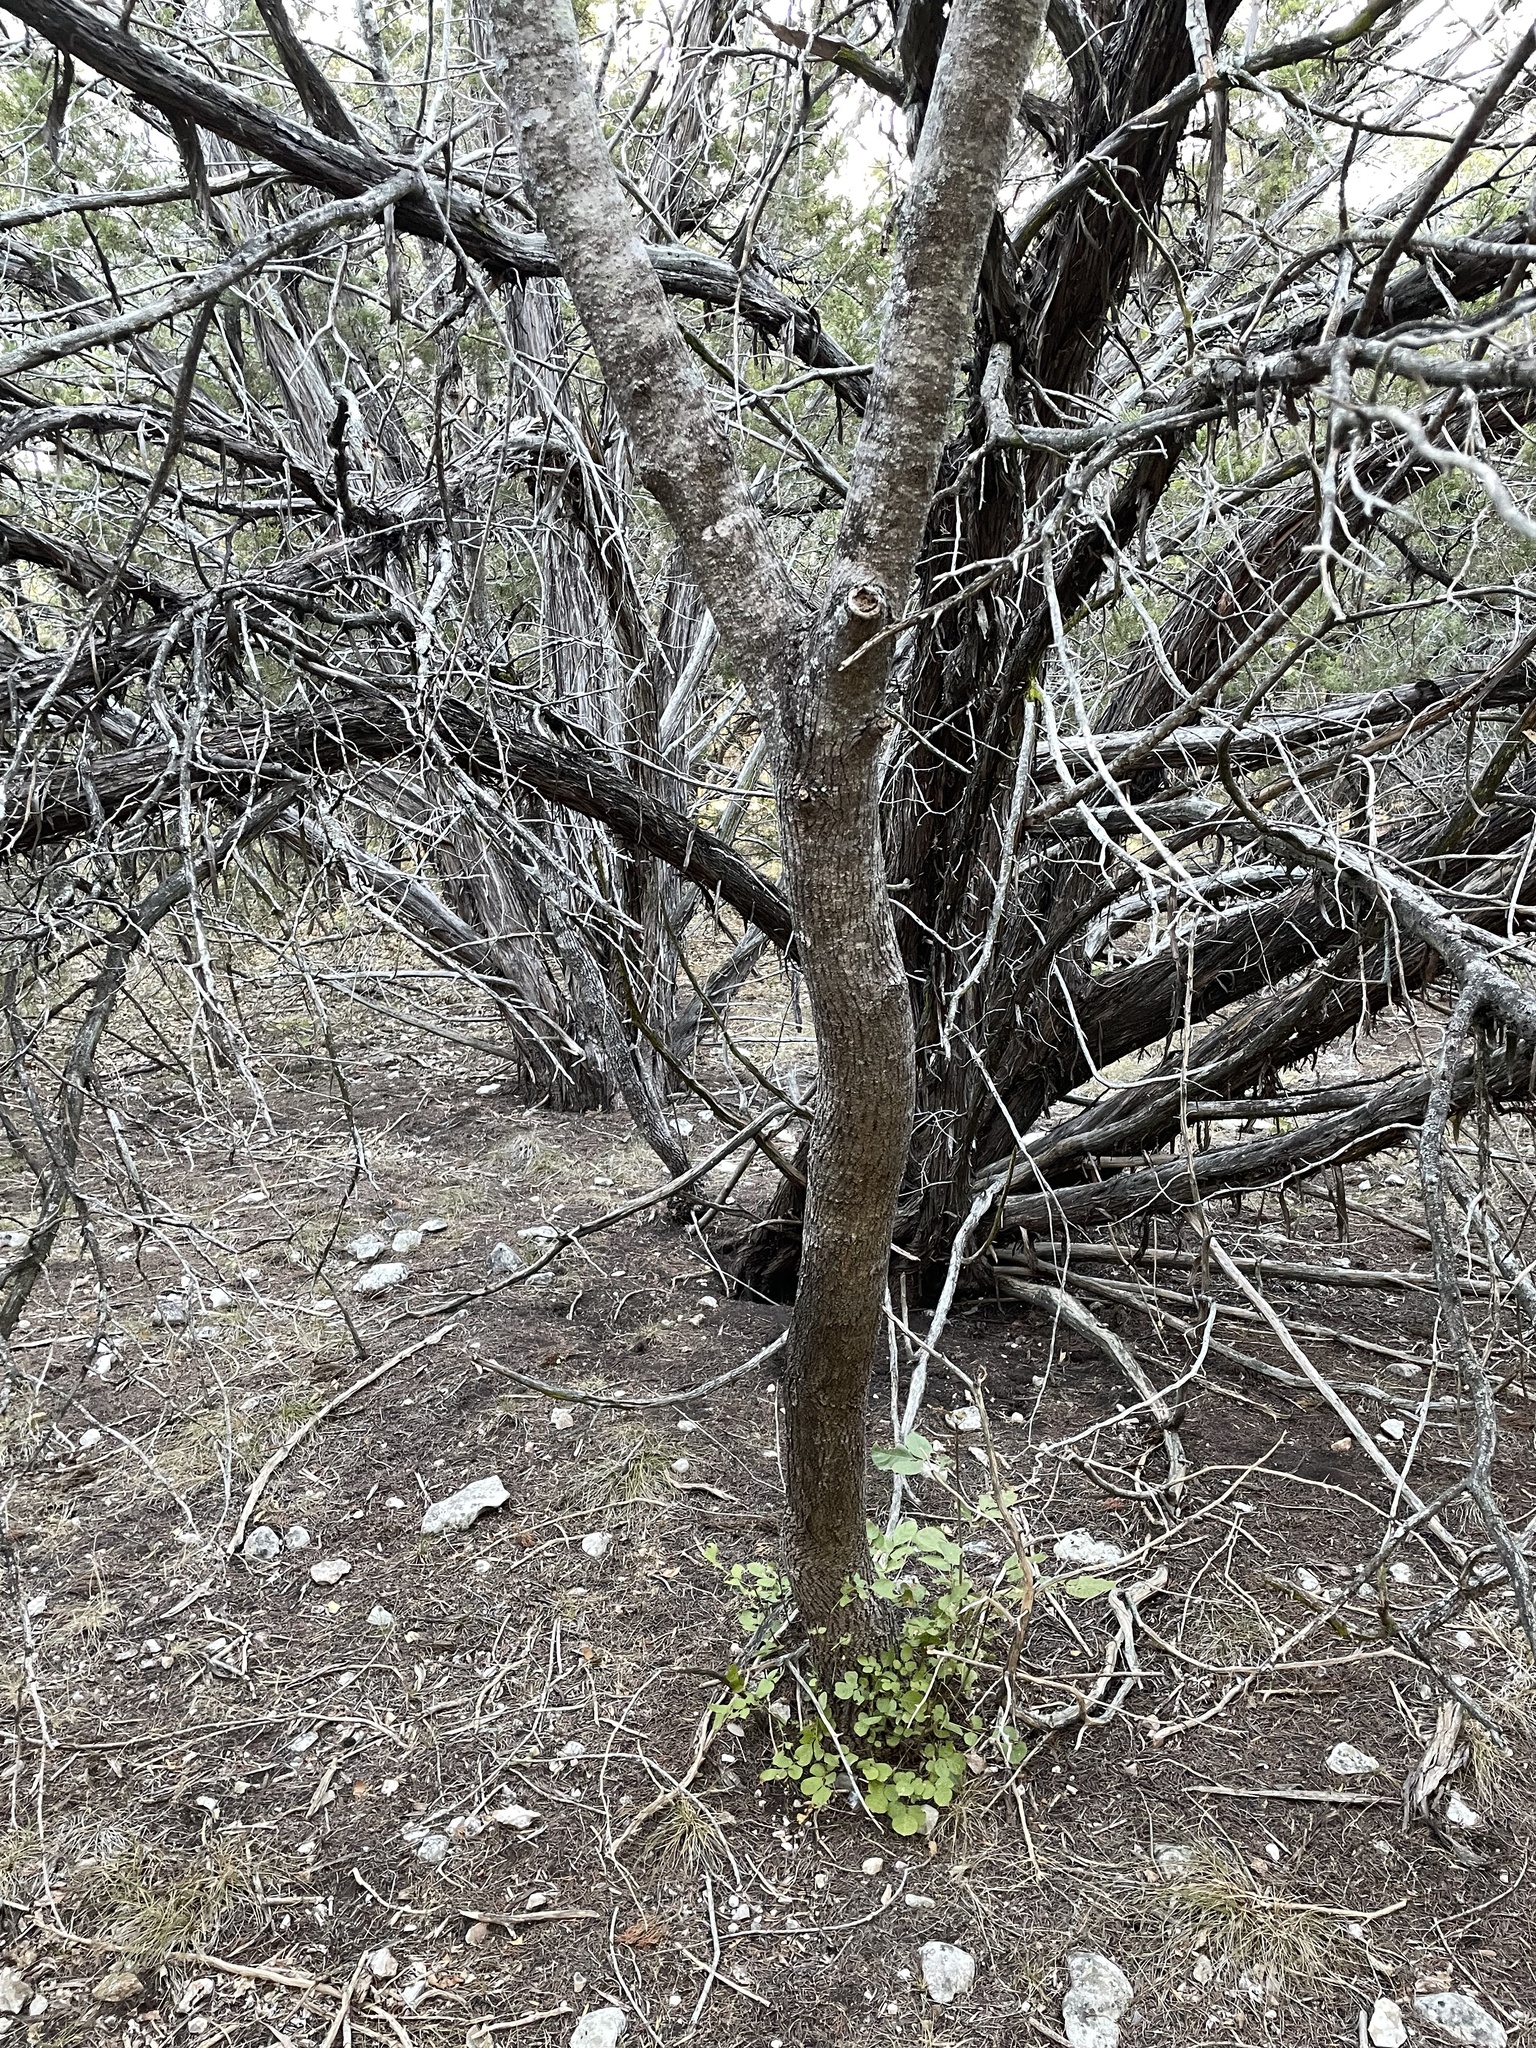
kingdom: Plantae
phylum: Tracheophyta
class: Magnoliopsida
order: Lamiales
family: Oleaceae
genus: Fraxinus
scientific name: Fraxinus albicans
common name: Texas ash
